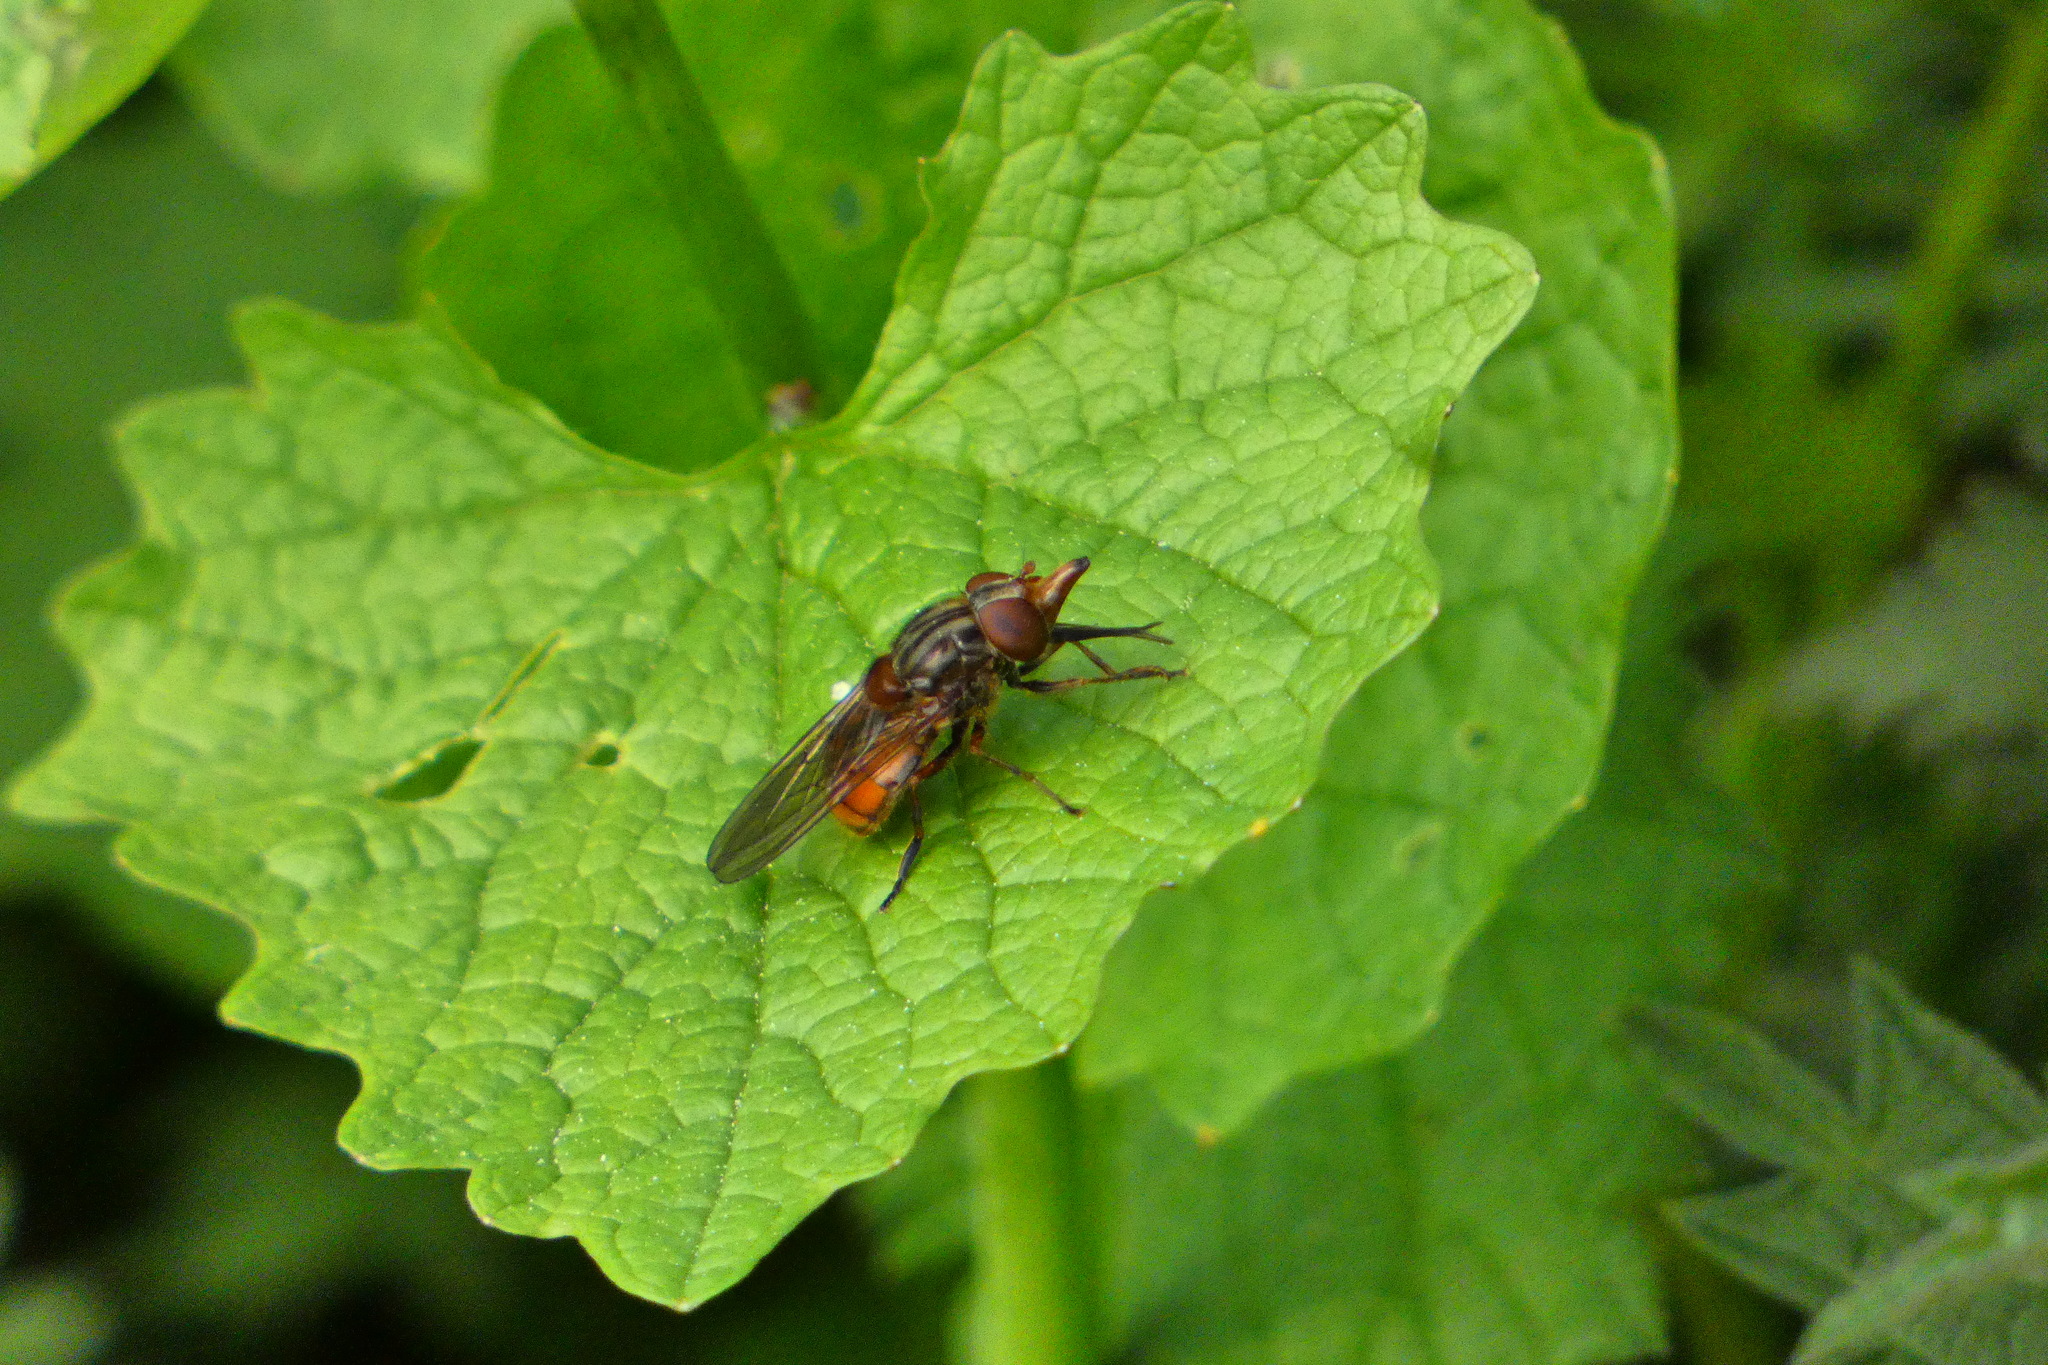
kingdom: Animalia
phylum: Arthropoda
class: Insecta
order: Diptera
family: Syrphidae
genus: Rhingia
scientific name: Rhingia campestris
